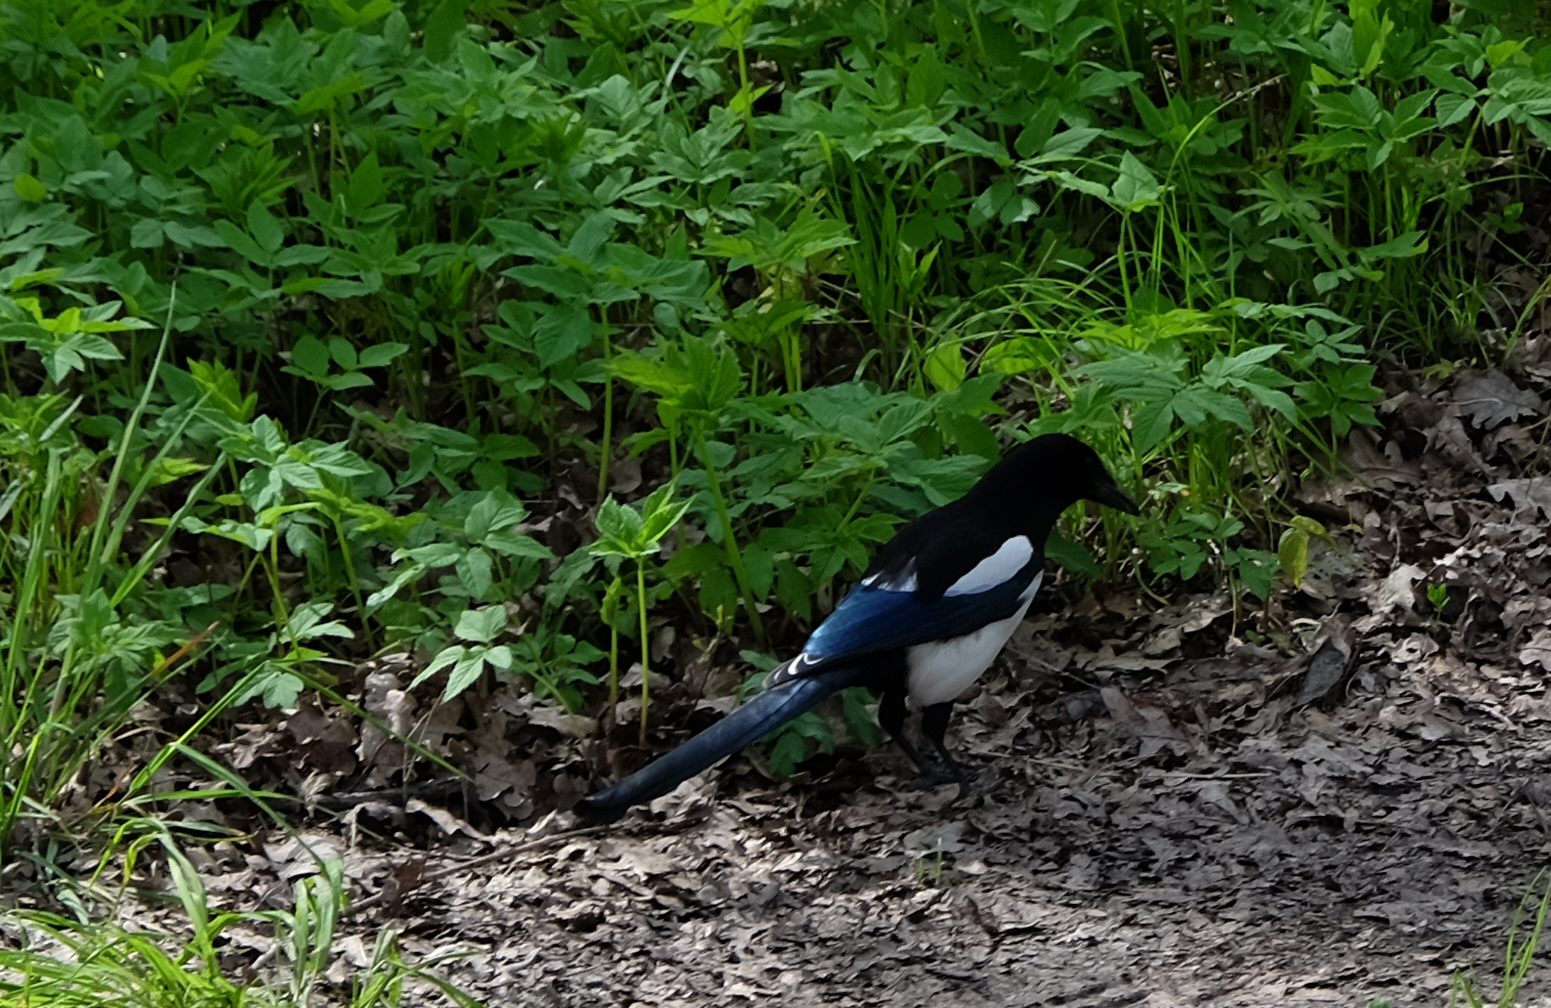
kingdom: Animalia
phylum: Chordata
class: Aves
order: Passeriformes
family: Corvidae
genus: Pica
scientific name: Pica pica
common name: Eurasian magpie
